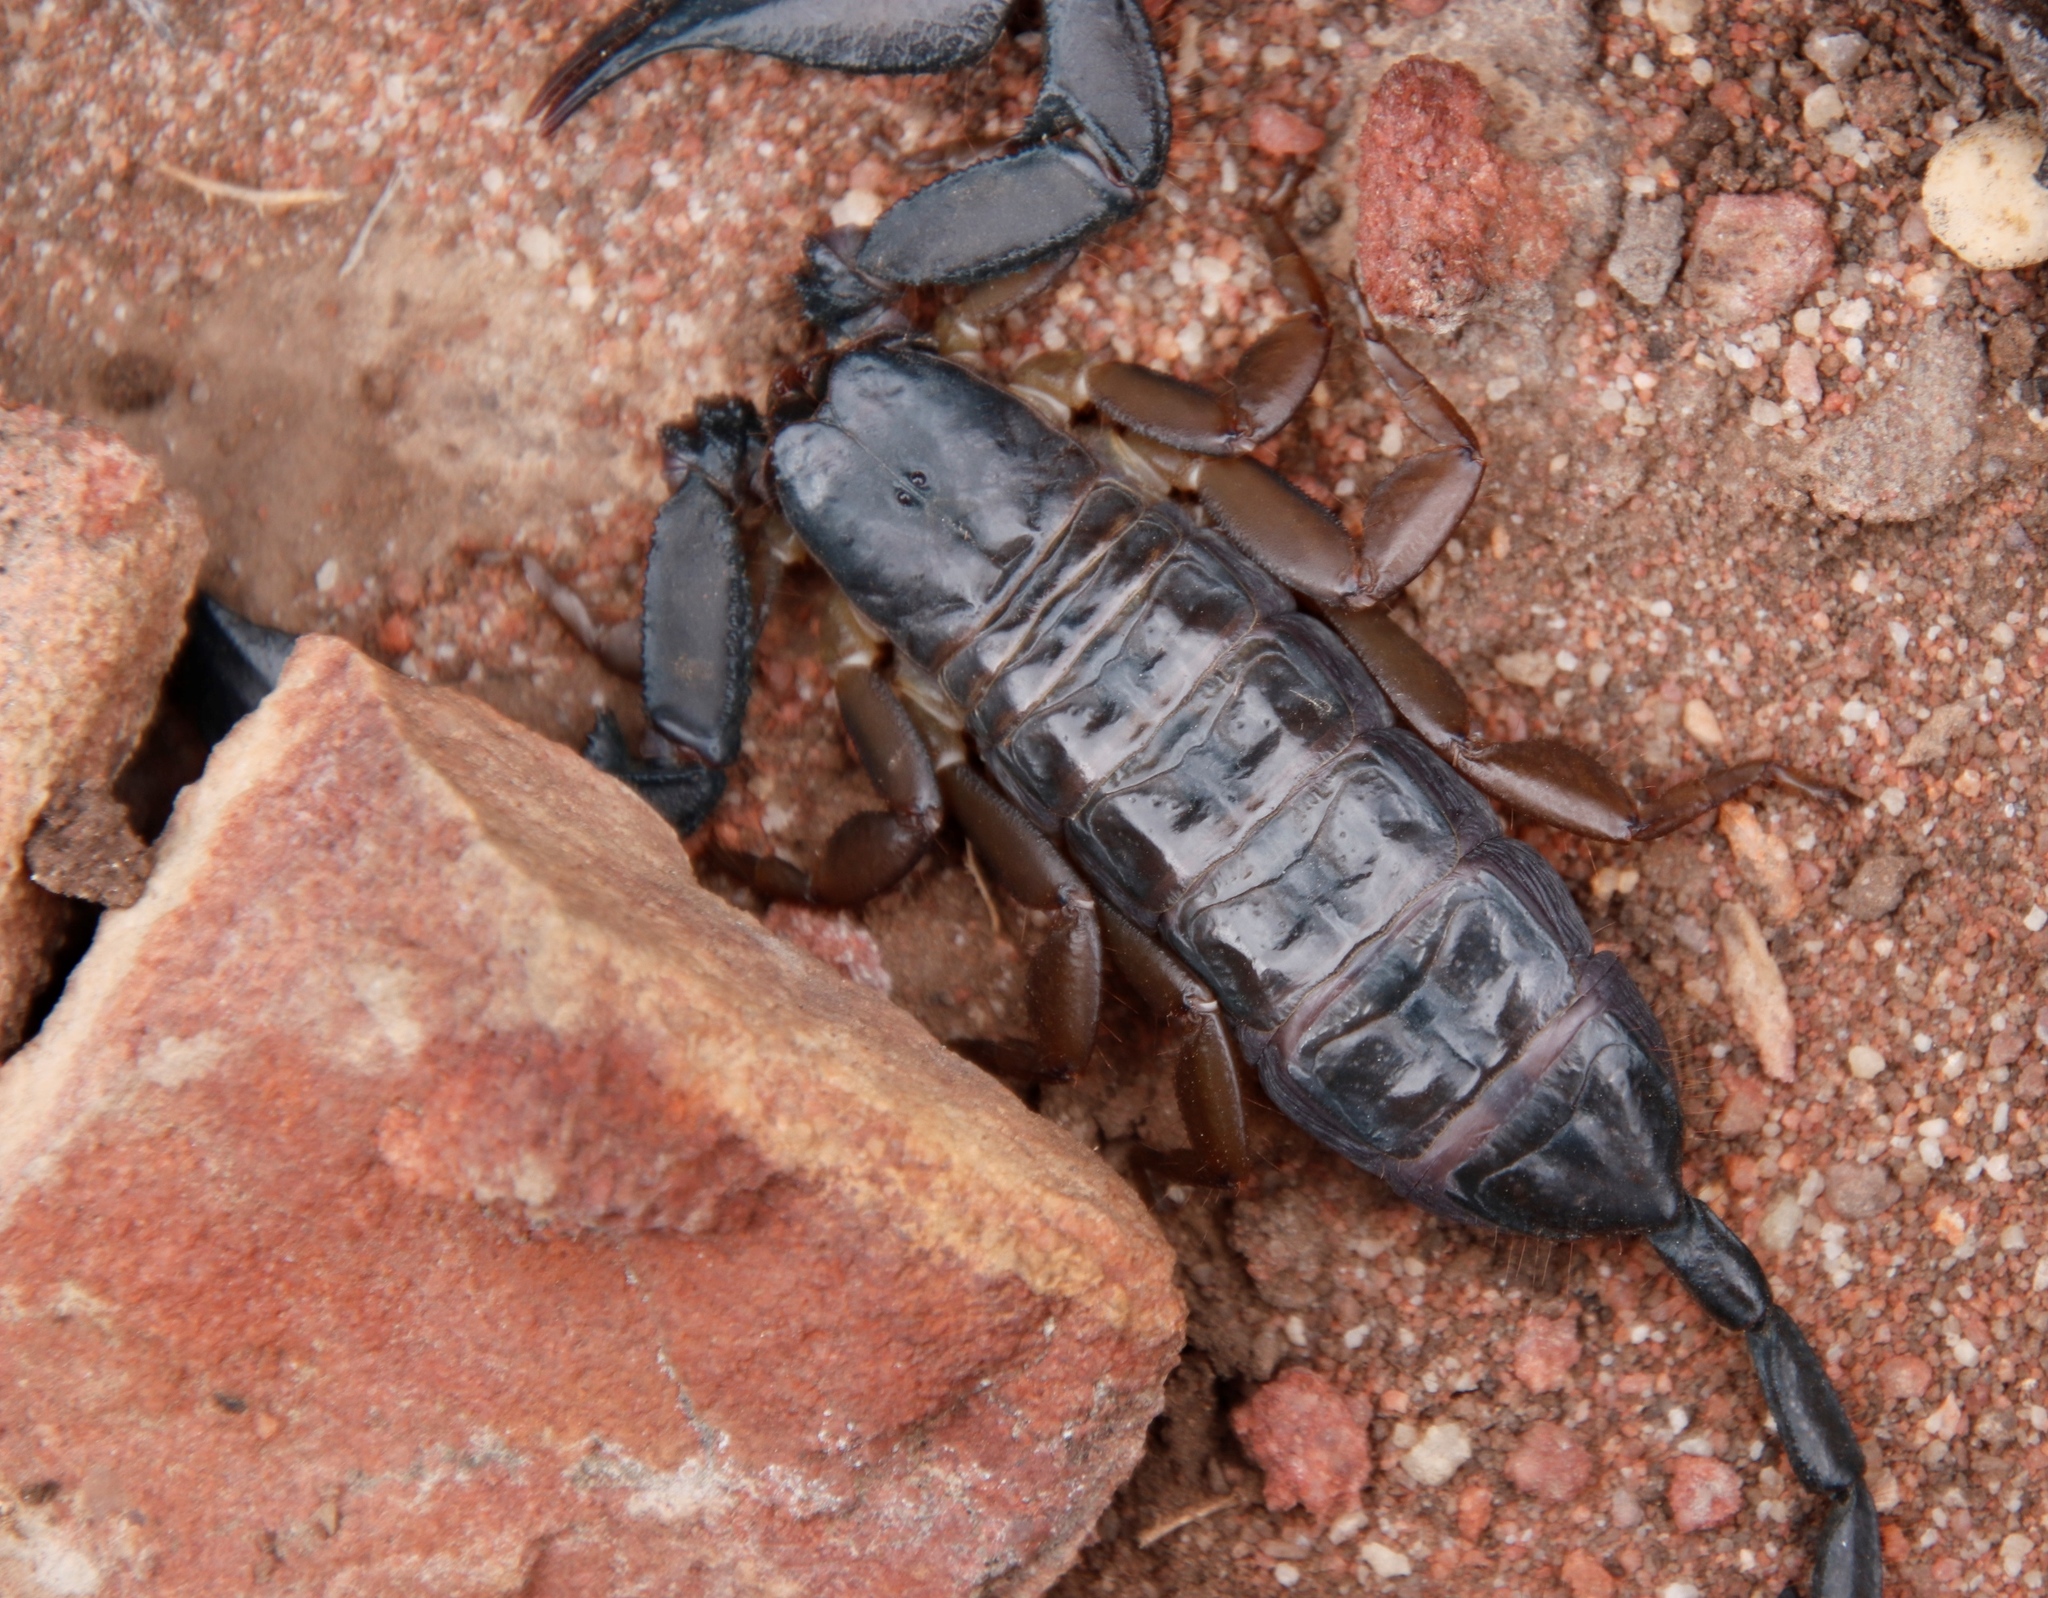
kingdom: Animalia
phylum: Arthropoda
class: Arachnida
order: Scorpiones
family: Hormuridae
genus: Hadogenes
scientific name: Hadogenes minor
